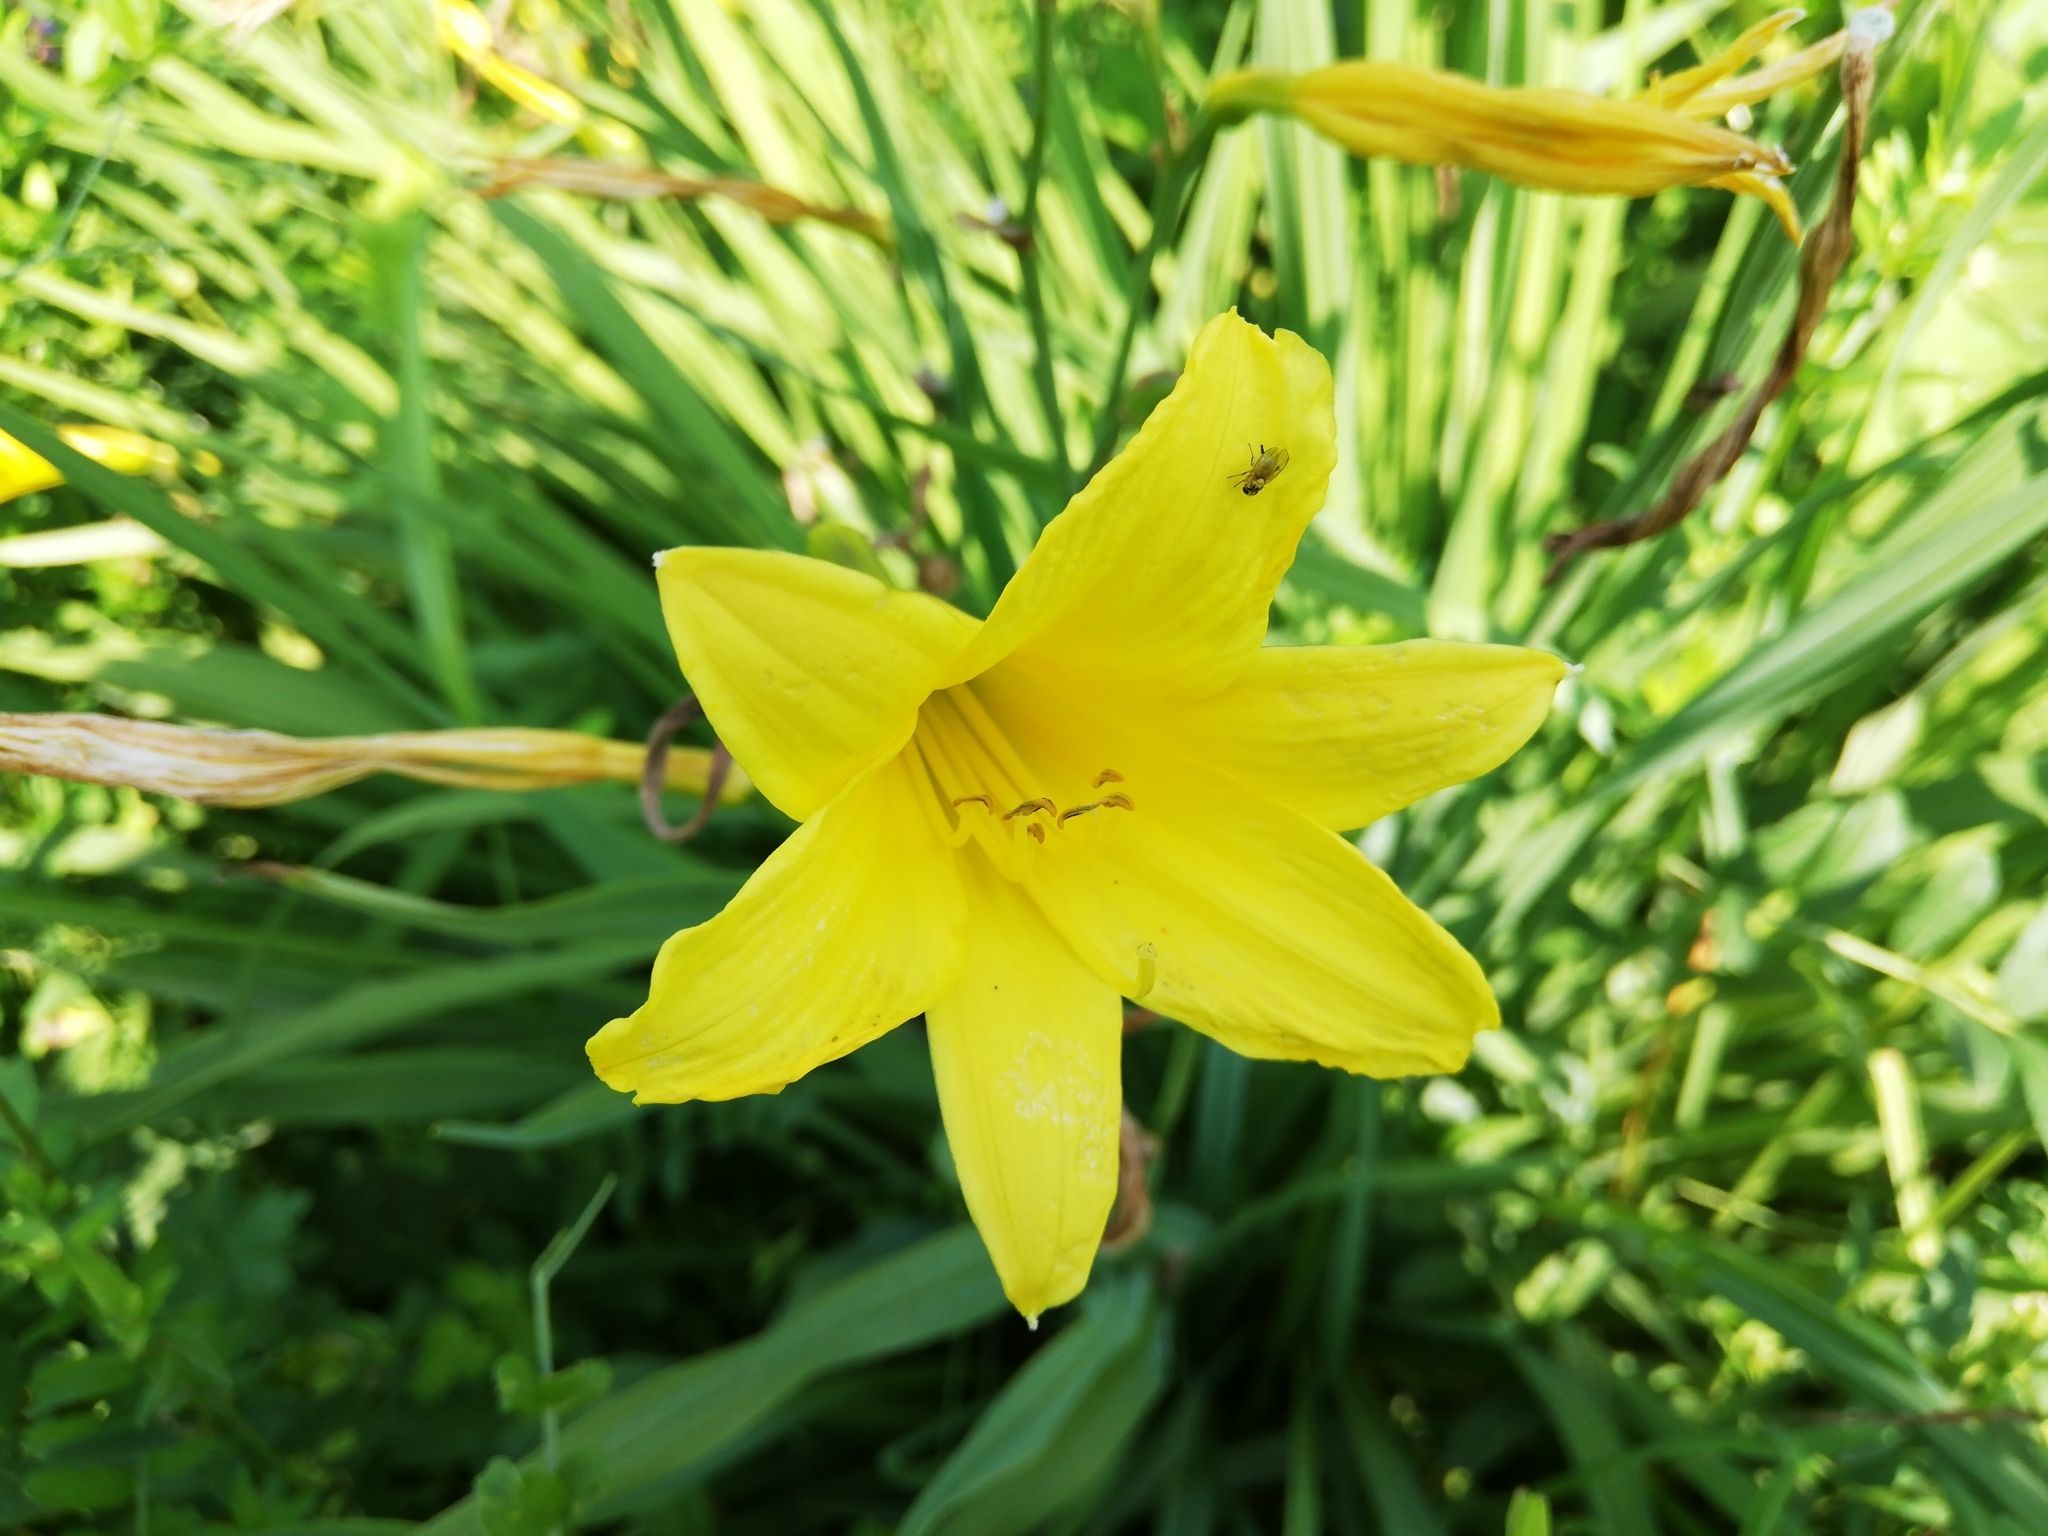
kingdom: Plantae
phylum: Tracheophyta
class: Liliopsida
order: Asparagales
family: Asphodelaceae
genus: Hemerocallis
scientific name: Hemerocallis minor
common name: Small daylily
